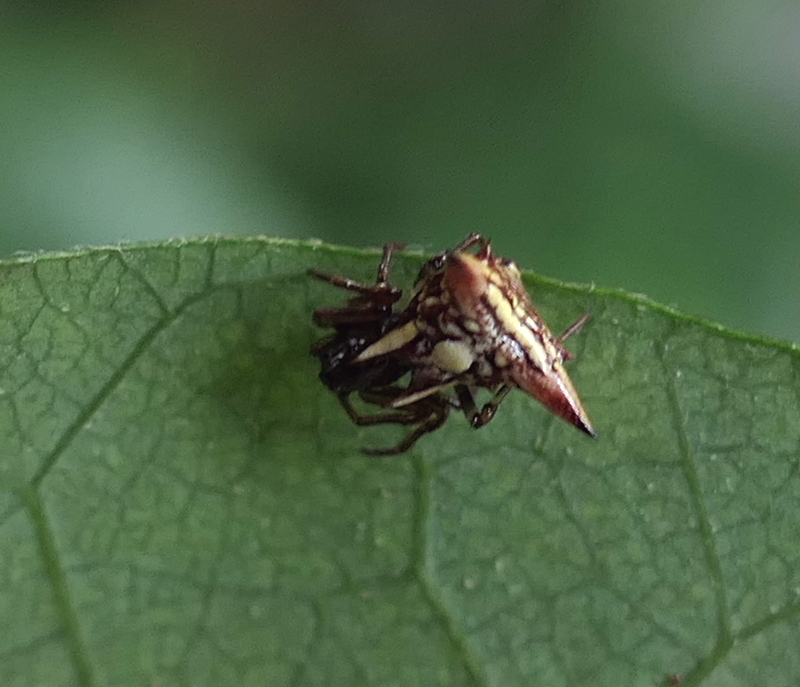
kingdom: Animalia
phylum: Arthropoda
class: Arachnida
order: Araneae
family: Araneidae
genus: Micrathena
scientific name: Micrathena evansi
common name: Orb weavers
